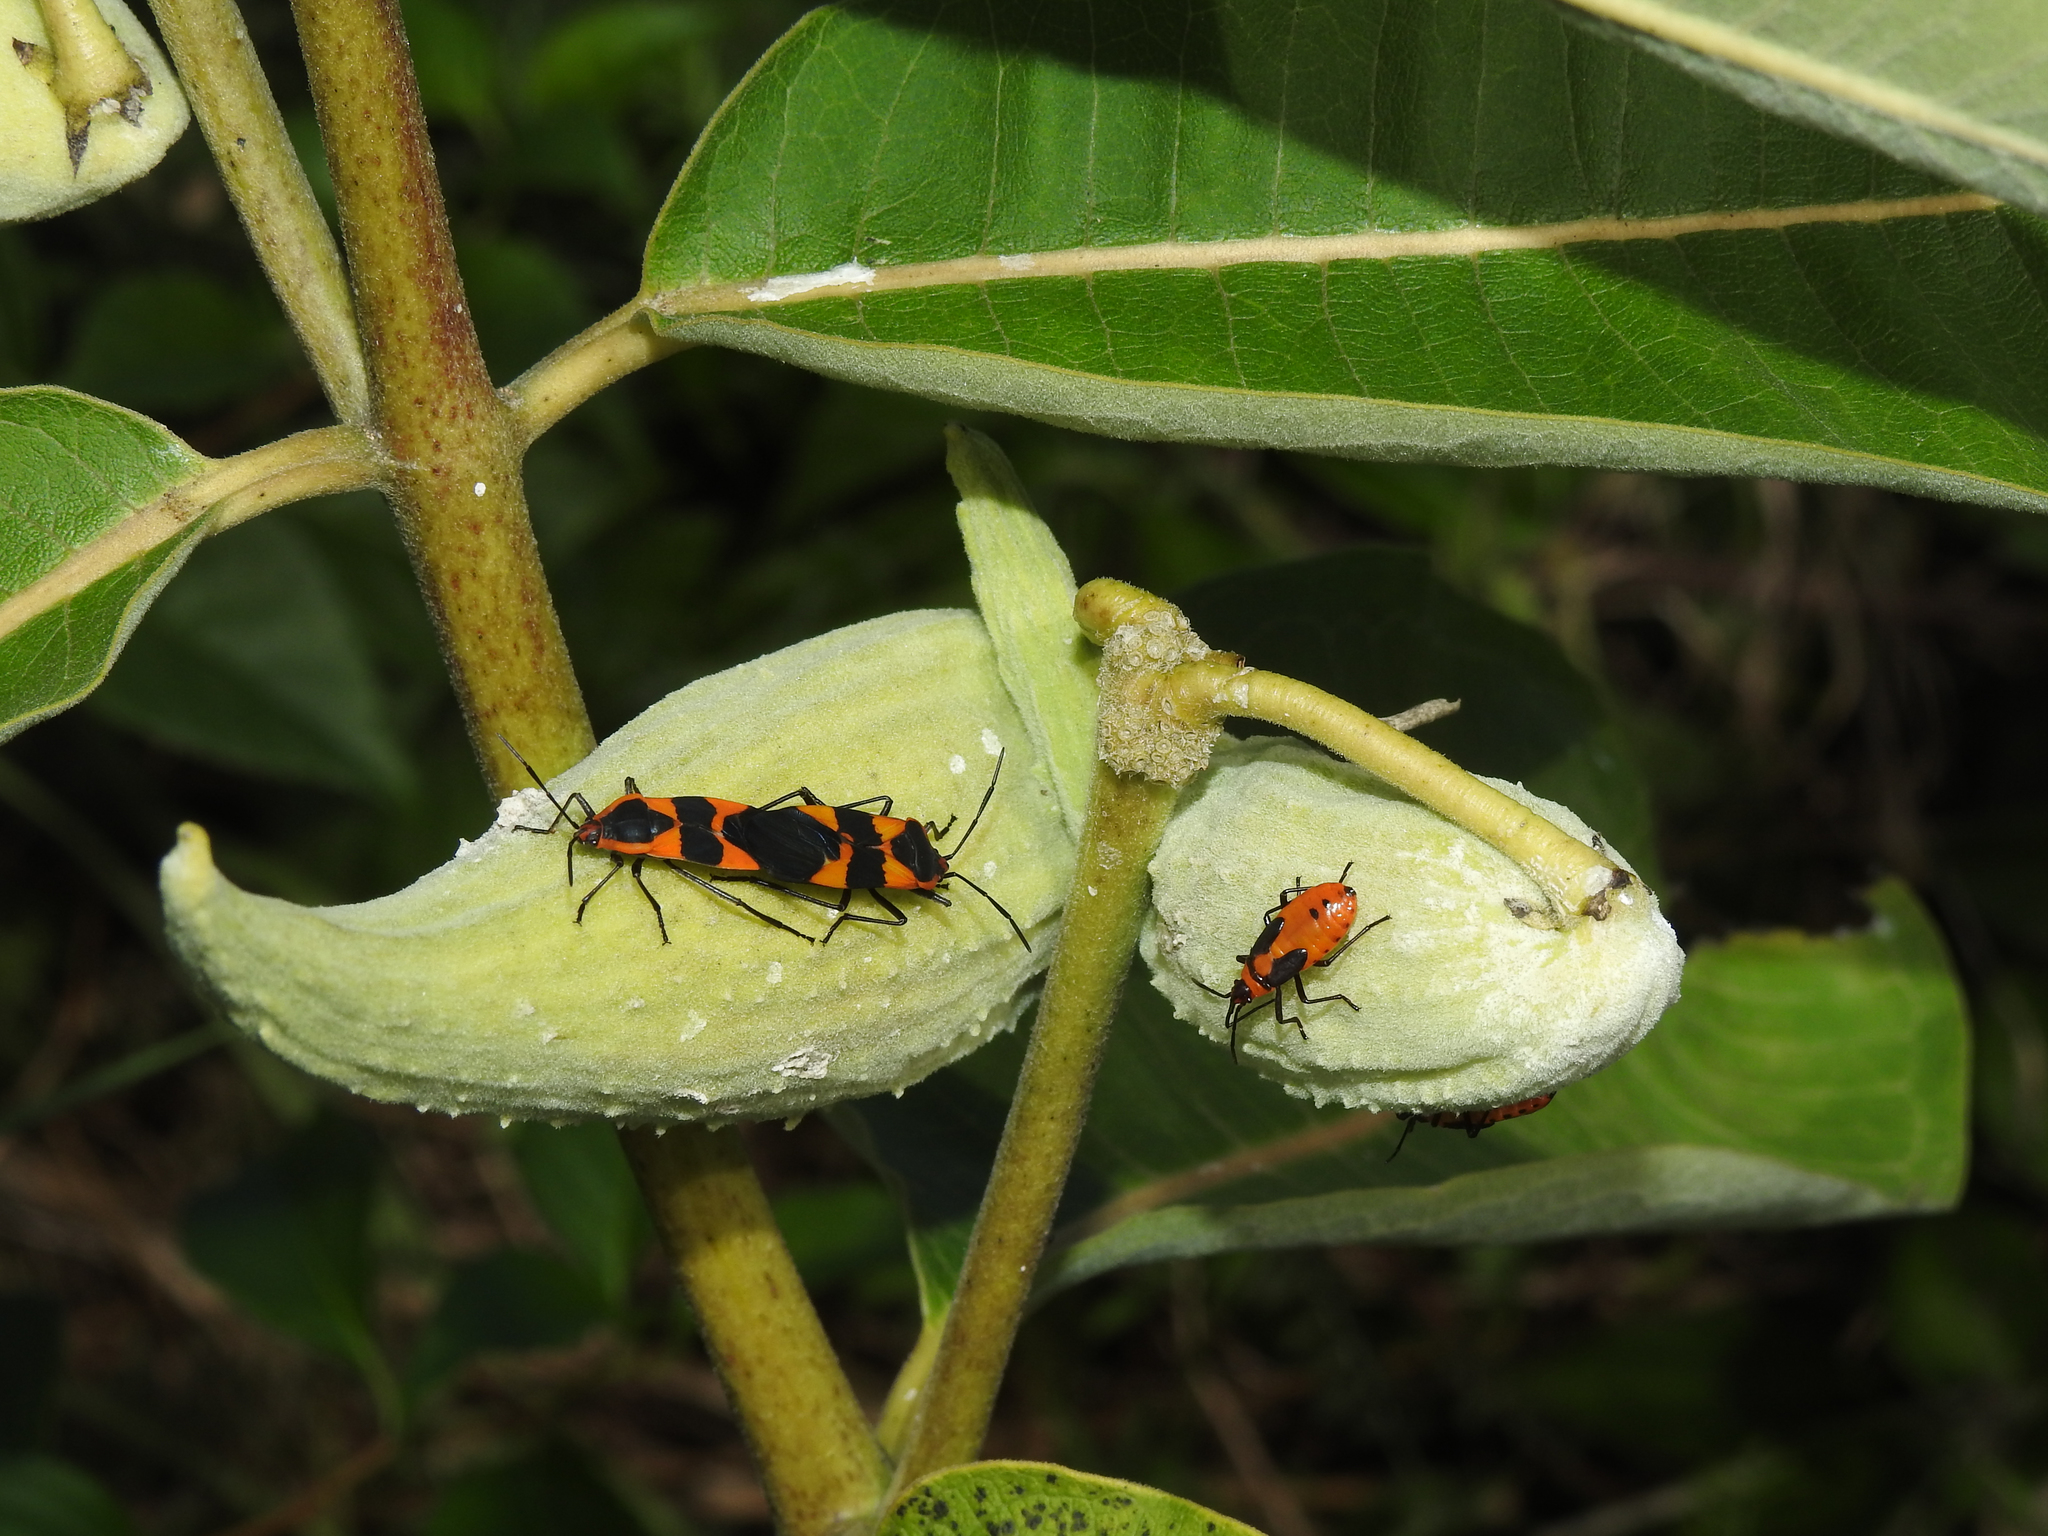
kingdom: Animalia
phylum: Arthropoda
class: Insecta
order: Hemiptera
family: Lygaeidae
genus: Oncopeltus
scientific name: Oncopeltus fasciatus
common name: Large milkweed bug
